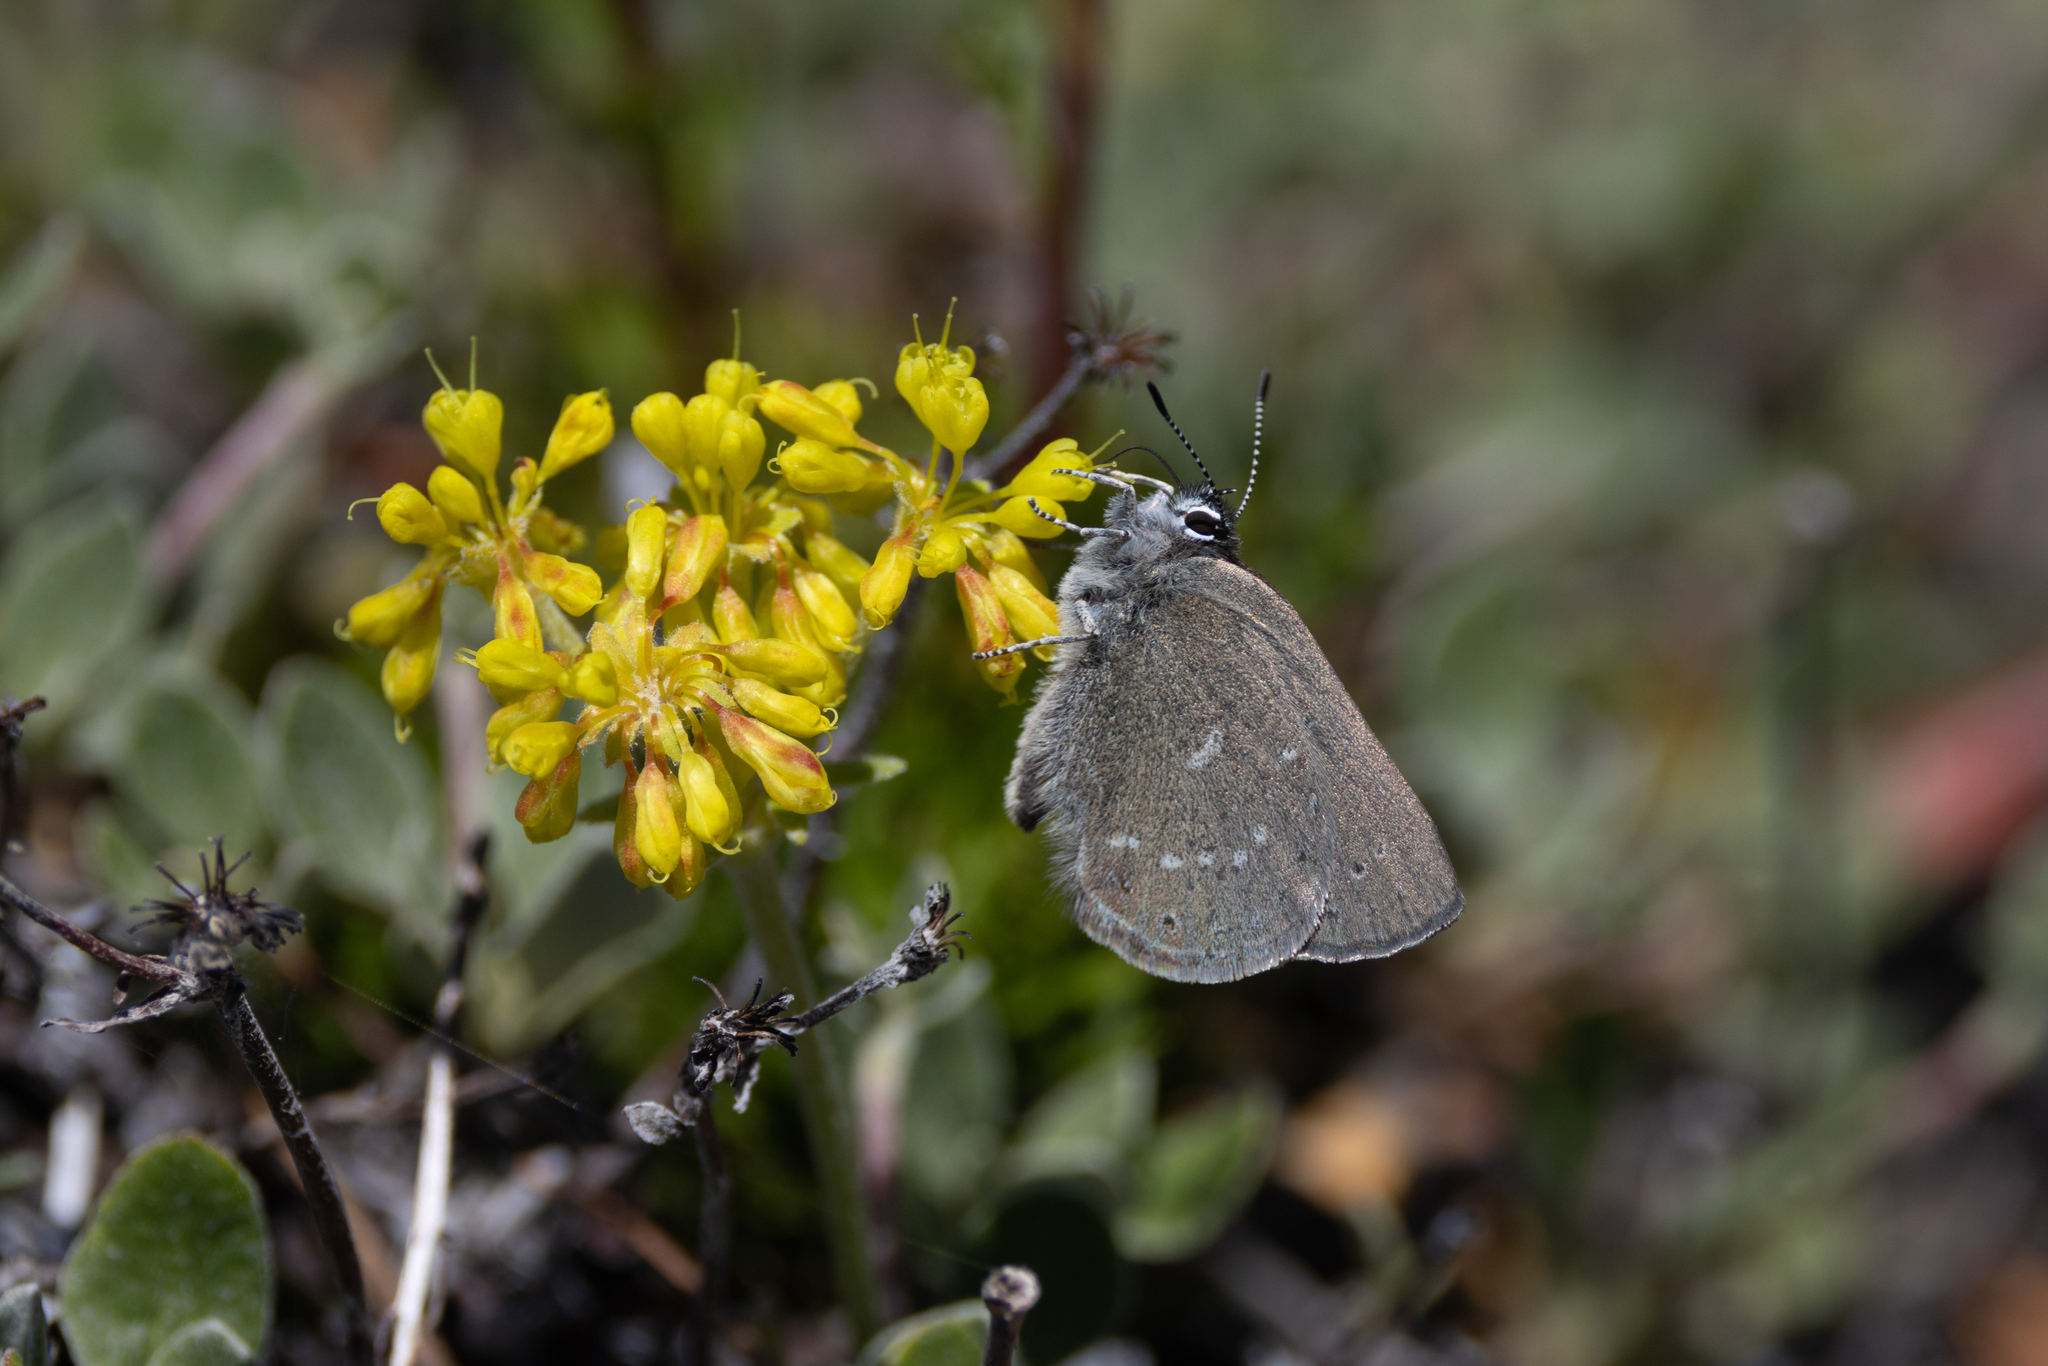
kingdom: Animalia
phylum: Arthropoda
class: Insecta
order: Lepidoptera
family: Lycaenidae
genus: Satyrium
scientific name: Satyrium fuliginosa
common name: Western sooty hairstreak
